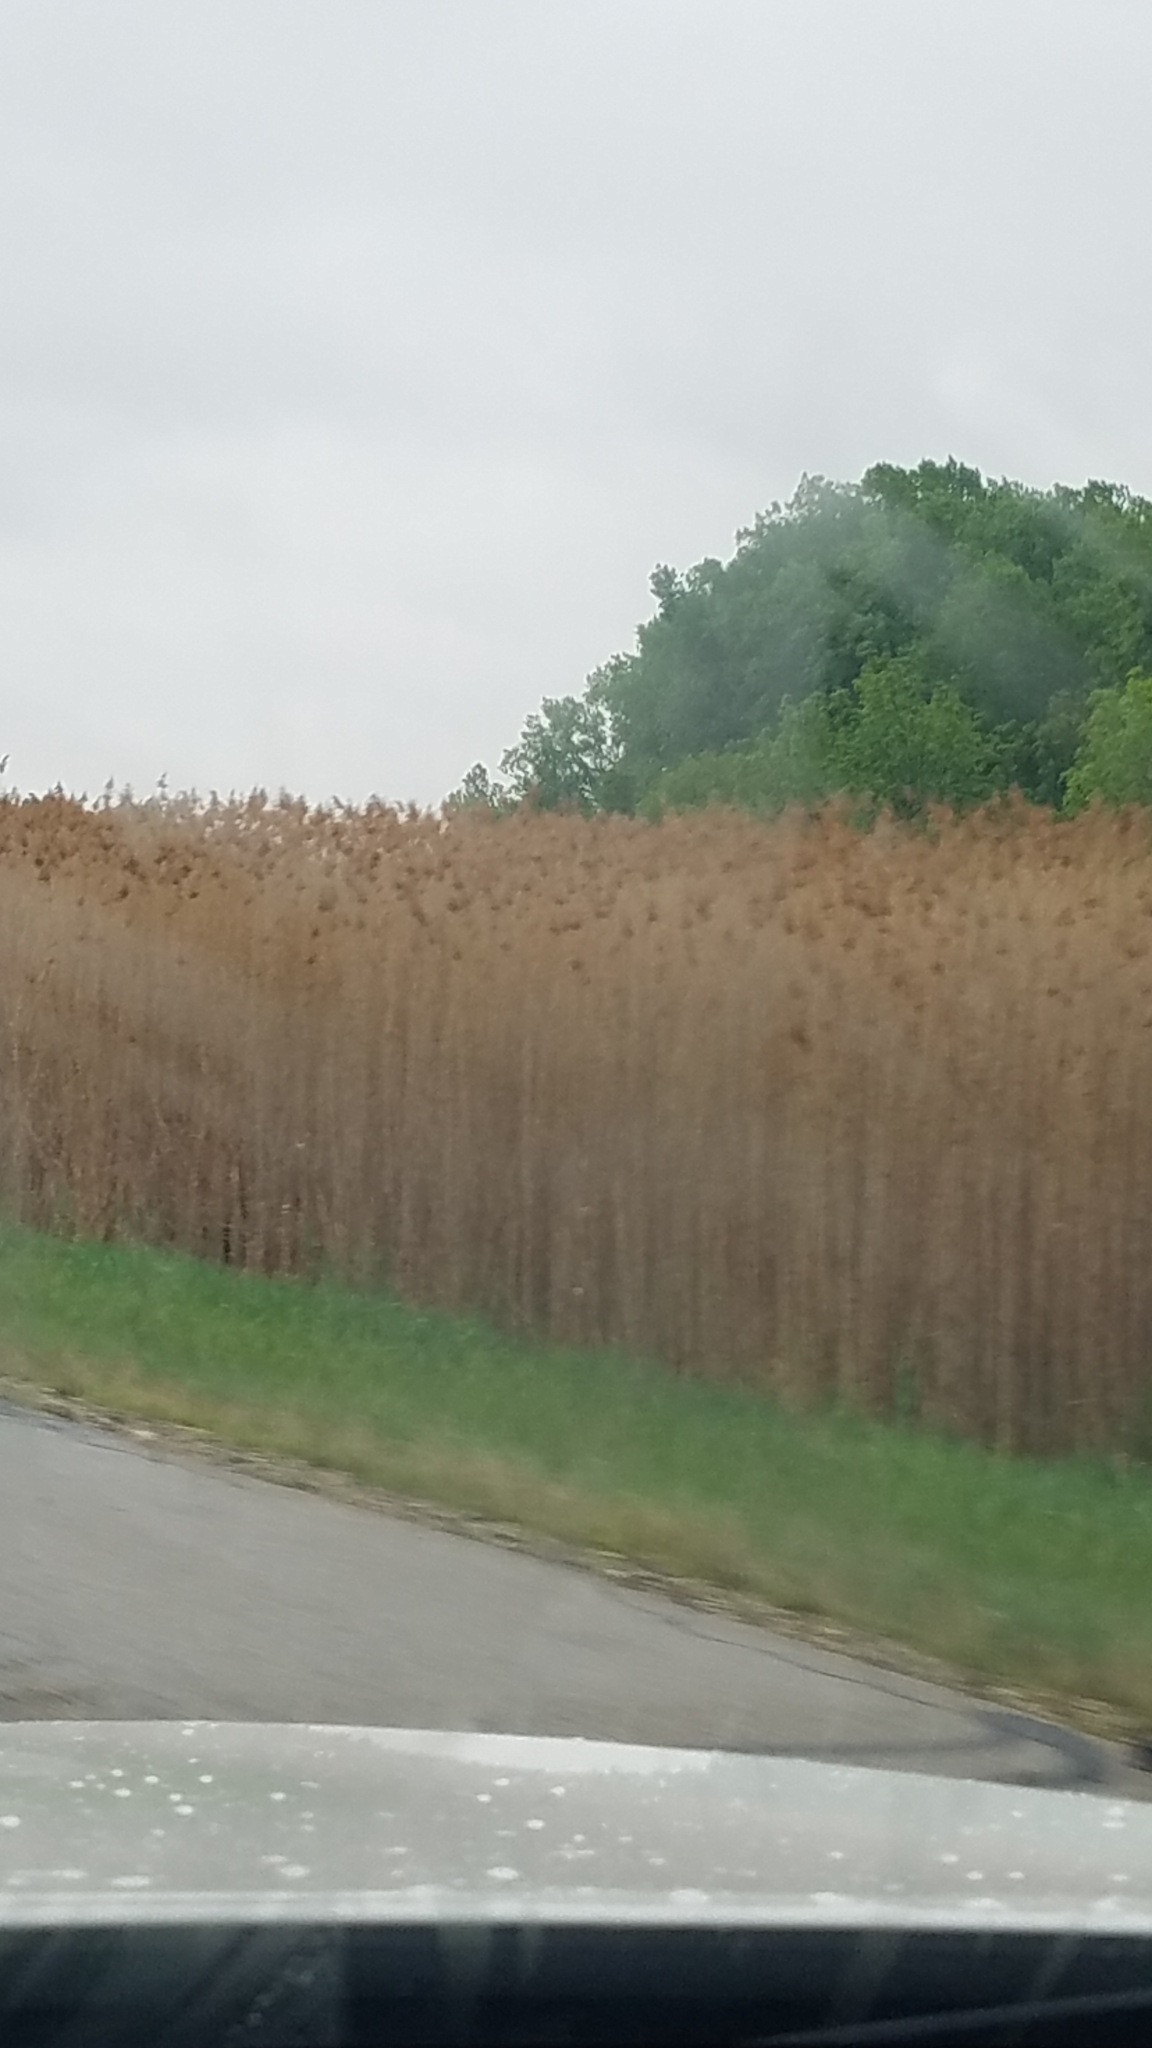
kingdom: Plantae
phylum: Tracheophyta
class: Liliopsida
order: Poales
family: Poaceae
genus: Phragmites
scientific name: Phragmites australis
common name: Common reed
